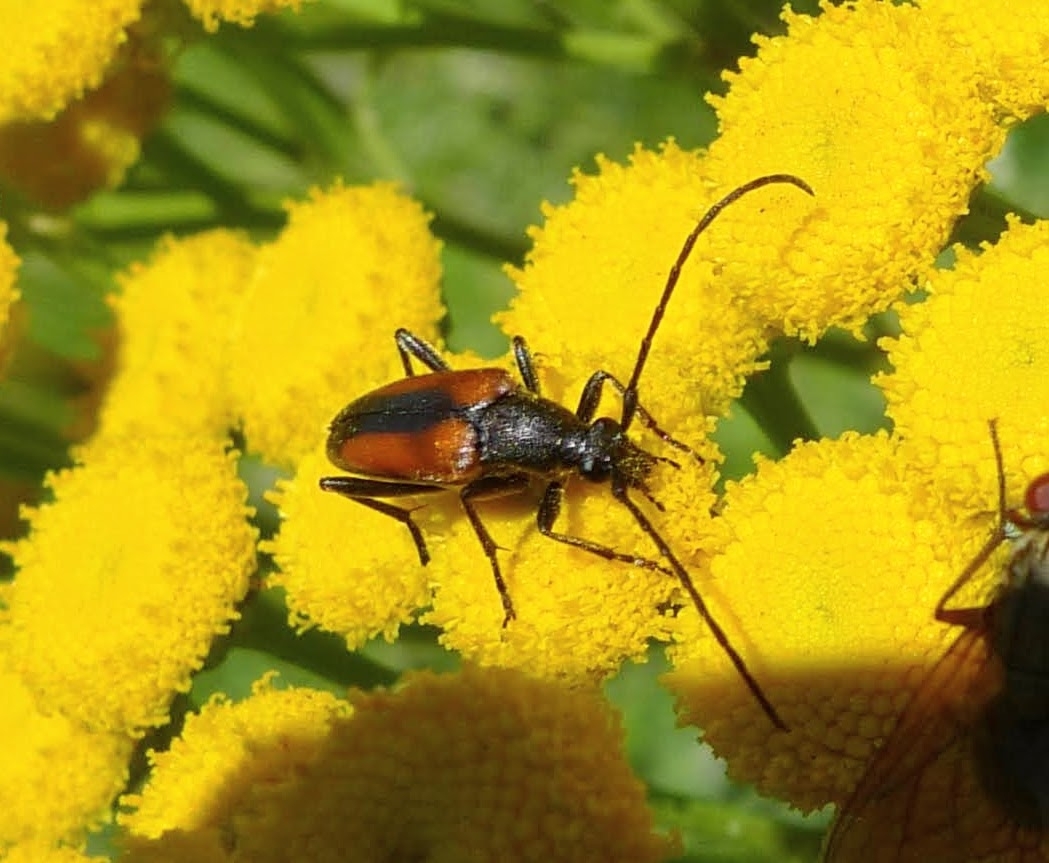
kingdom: Animalia
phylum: Arthropoda
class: Insecta
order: Coleoptera
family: Cerambycidae
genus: Stenurella
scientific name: Stenurella melanura
